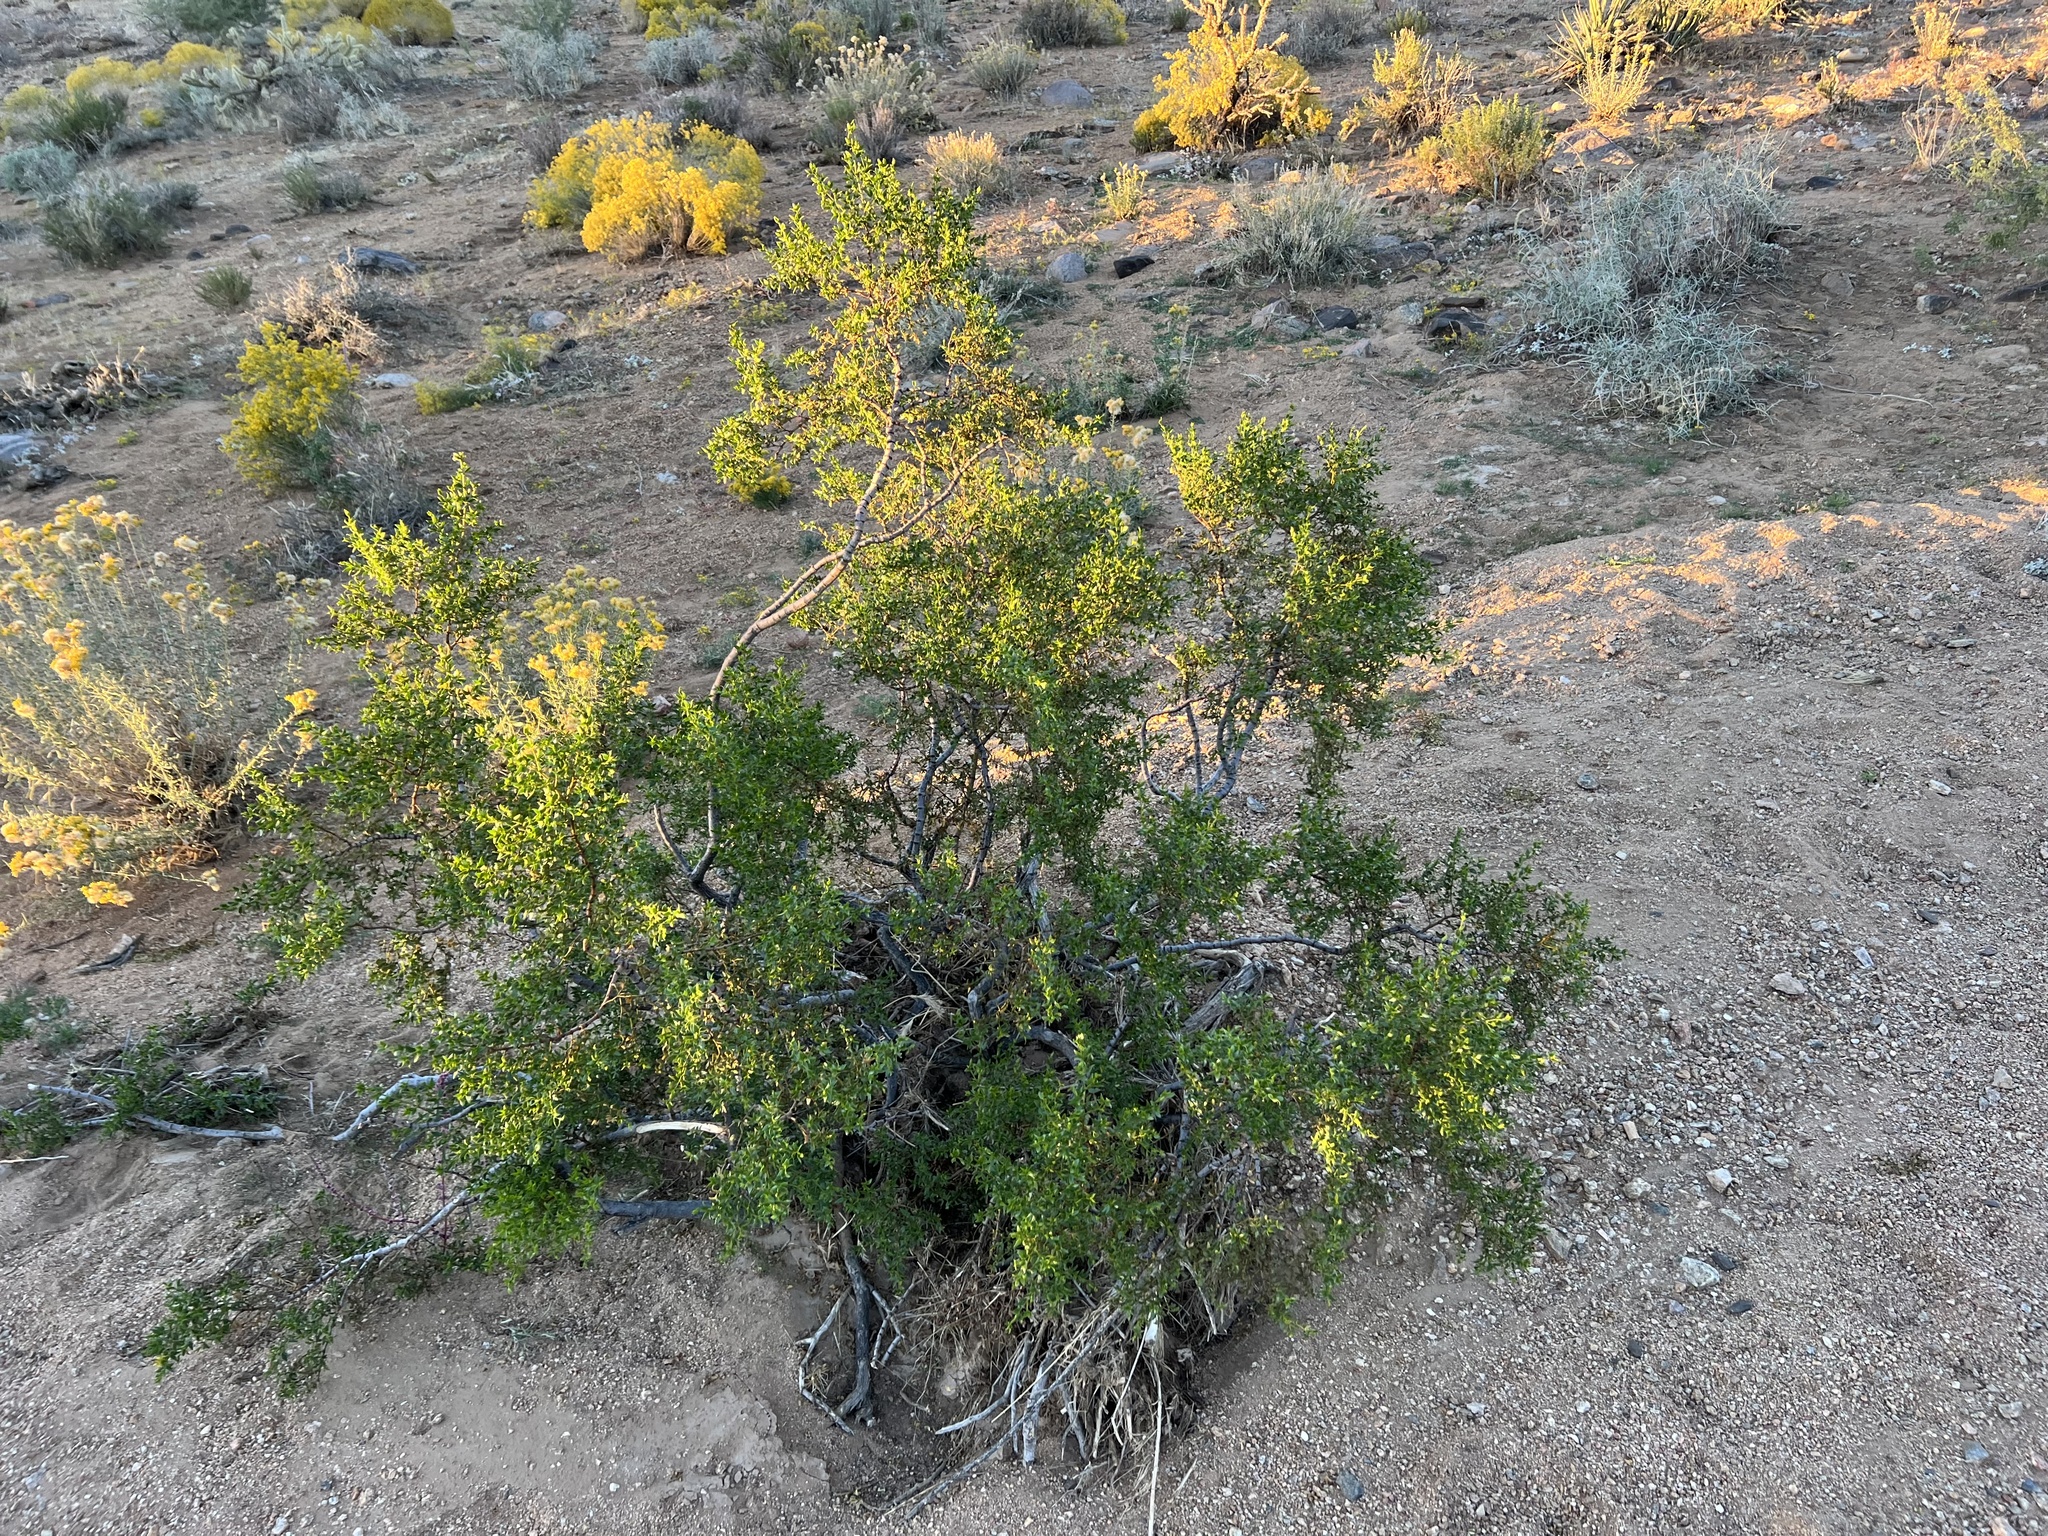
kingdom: Plantae
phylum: Tracheophyta
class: Magnoliopsida
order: Zygophyllales
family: Zygophyllaceae
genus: Larrea
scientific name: Larrea tridentata
